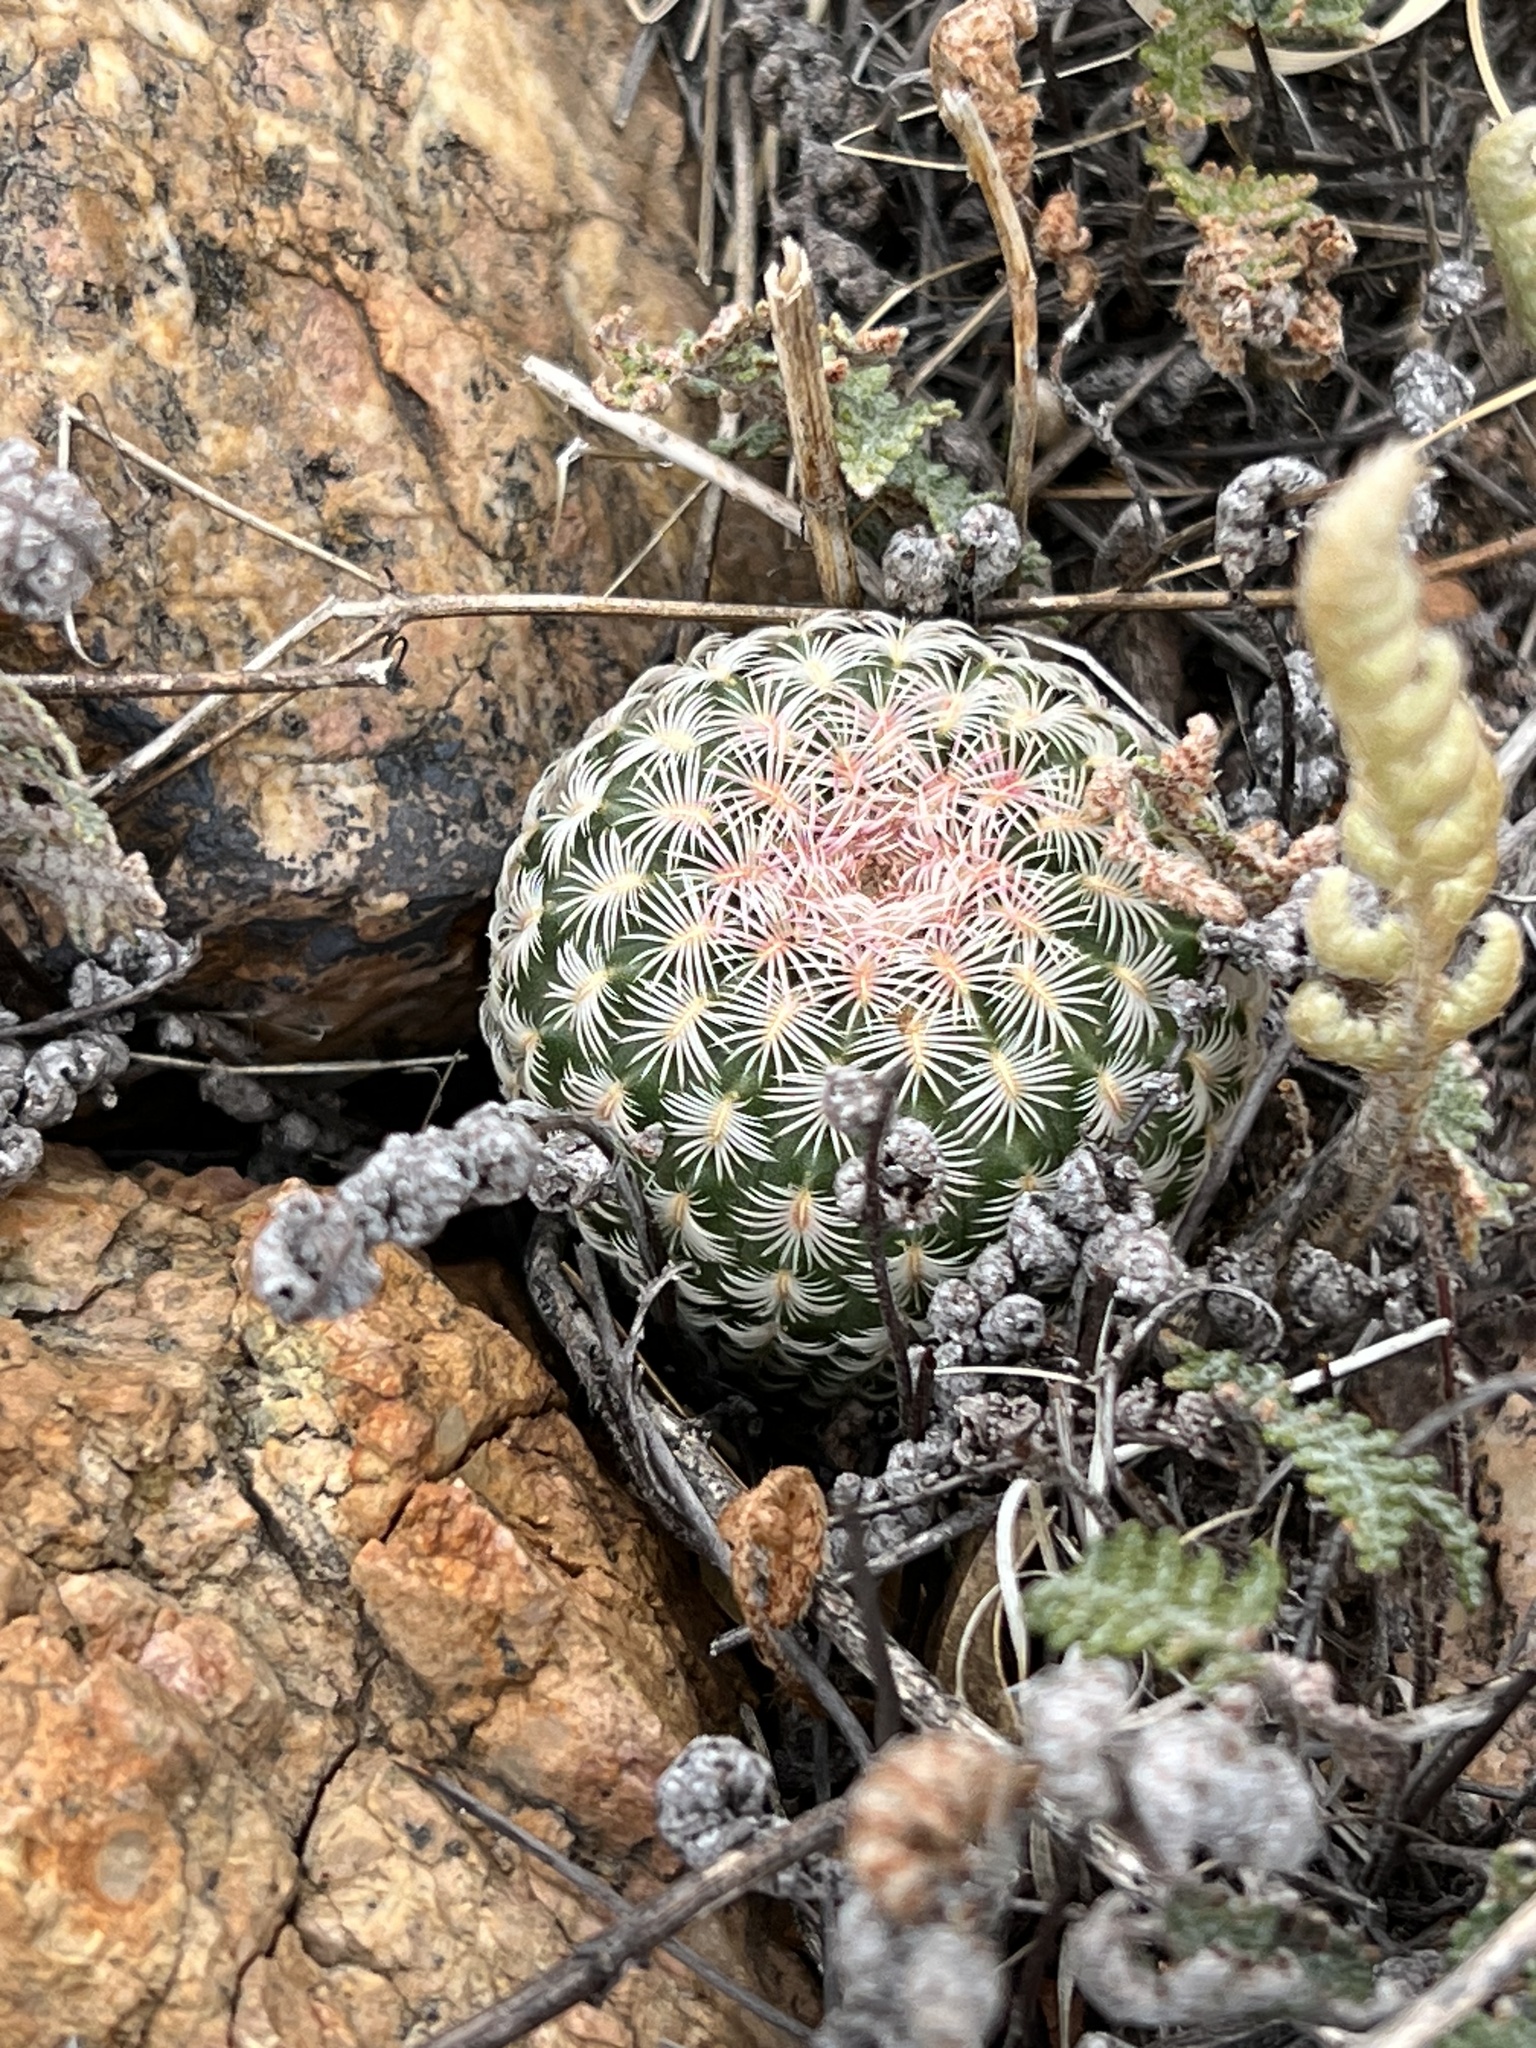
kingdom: Plantae
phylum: Tracheophyta
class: Magnoliopsida
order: Caryophyllales
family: Cactaceae
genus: Echinocereus
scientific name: Echinocereus rigidissimus
